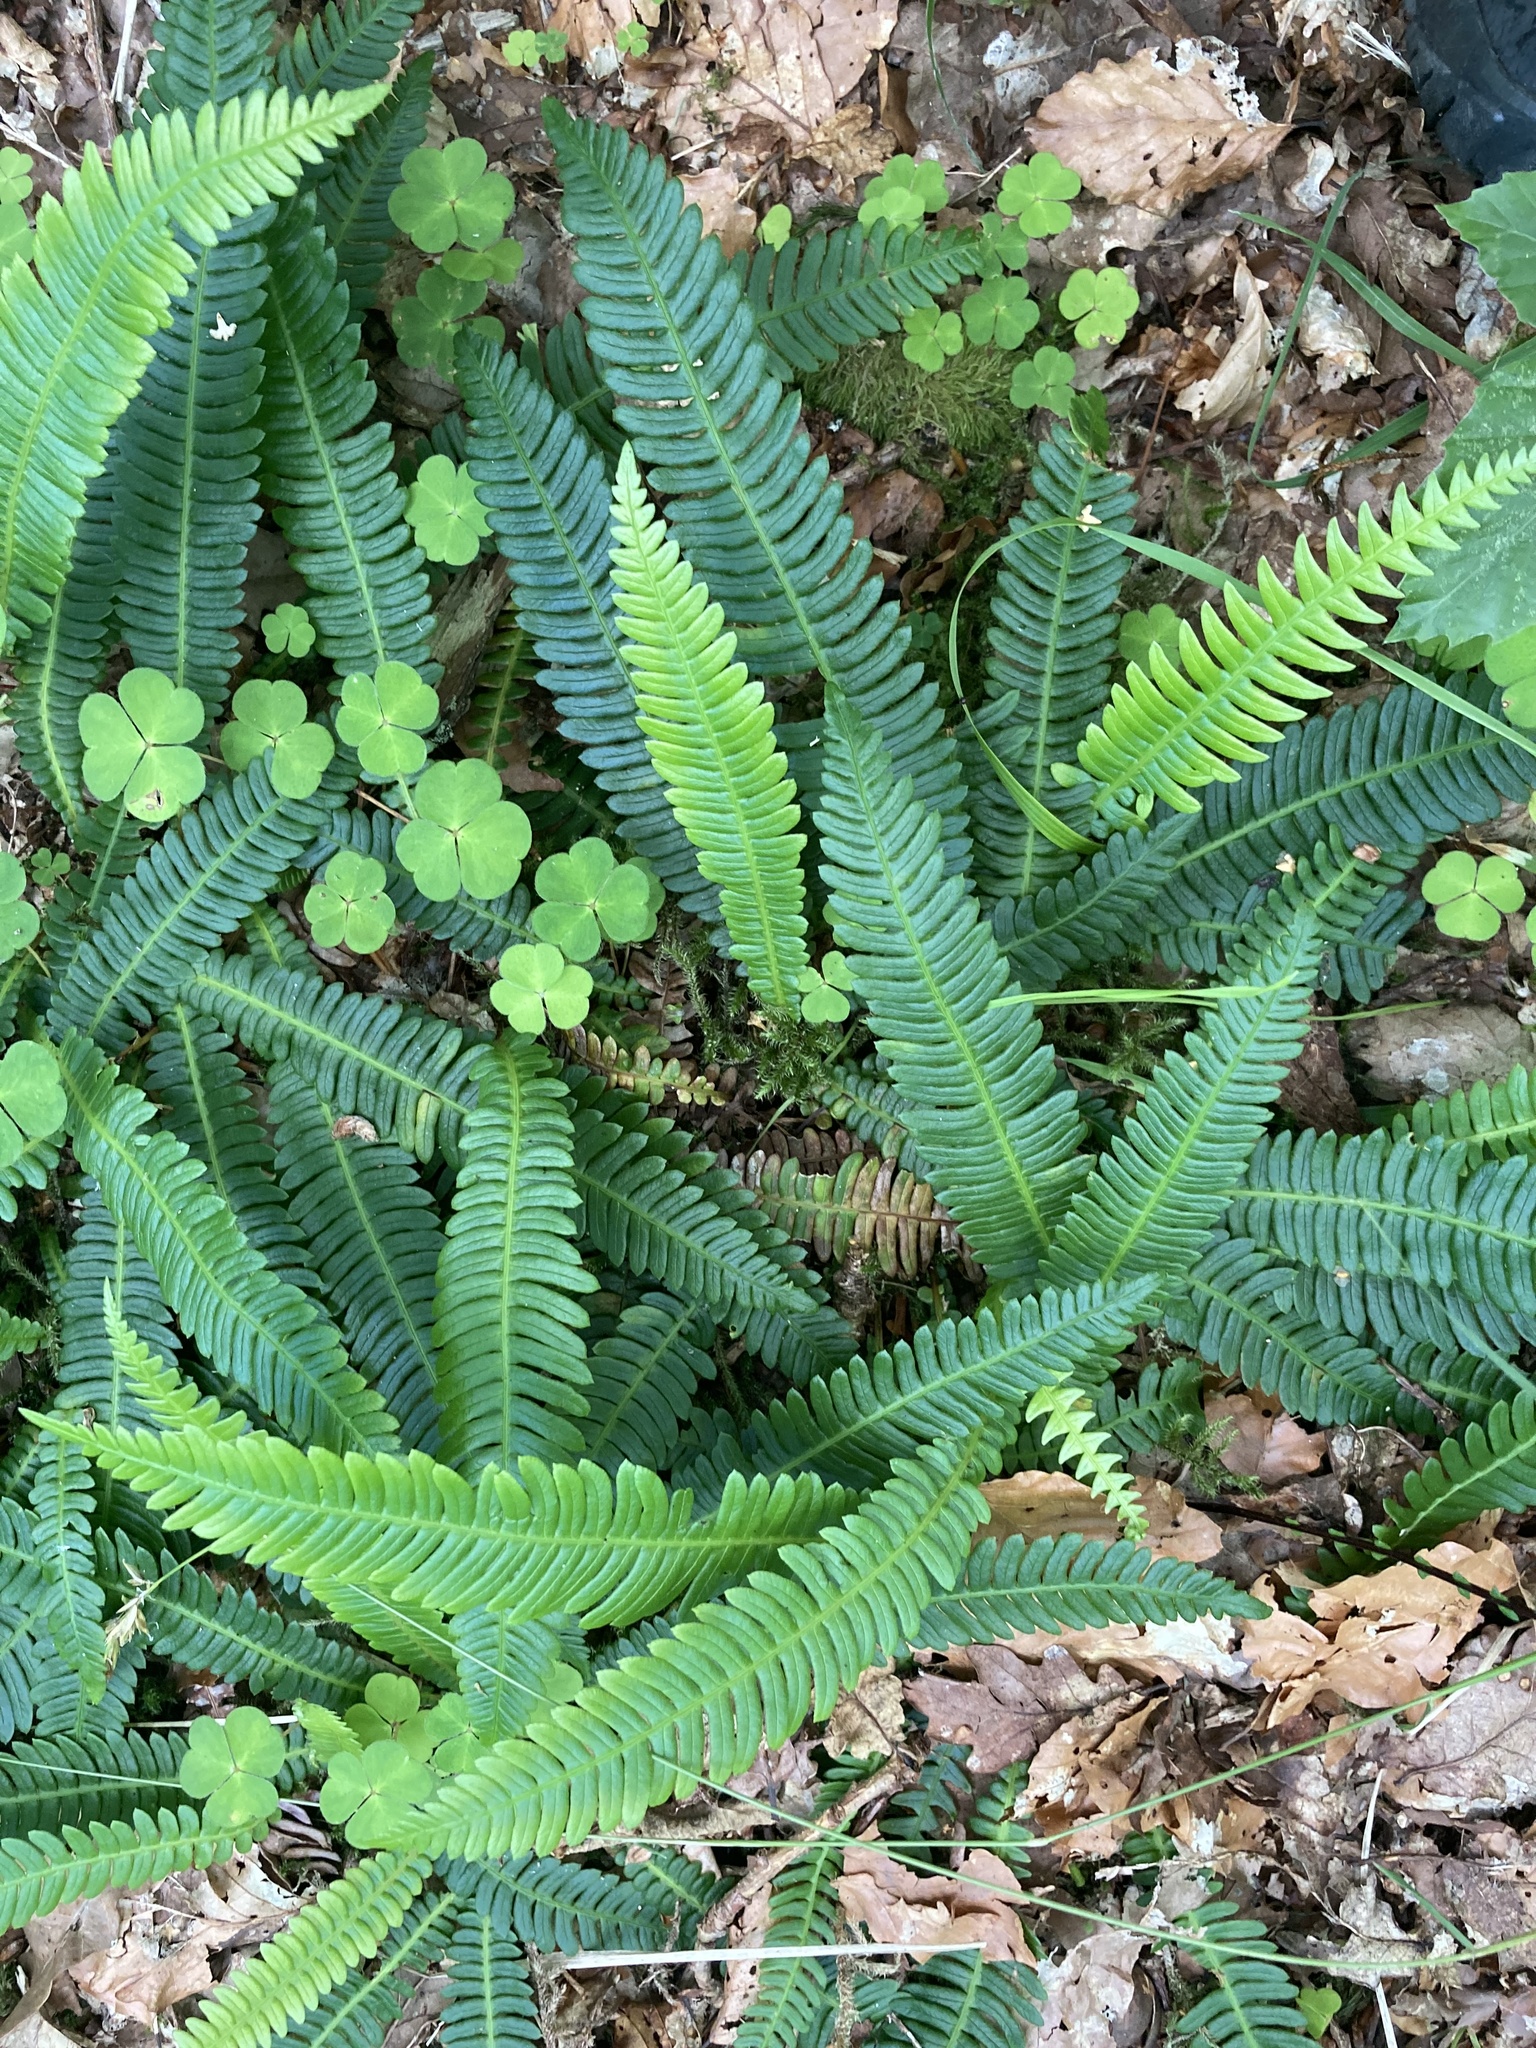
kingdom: Plantae
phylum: Tracheophyta
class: Polypodiopsida
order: Polypodiales
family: Blechnaceae
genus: Struthiopteris
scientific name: Struthiopteris spicant
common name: Deer fern
